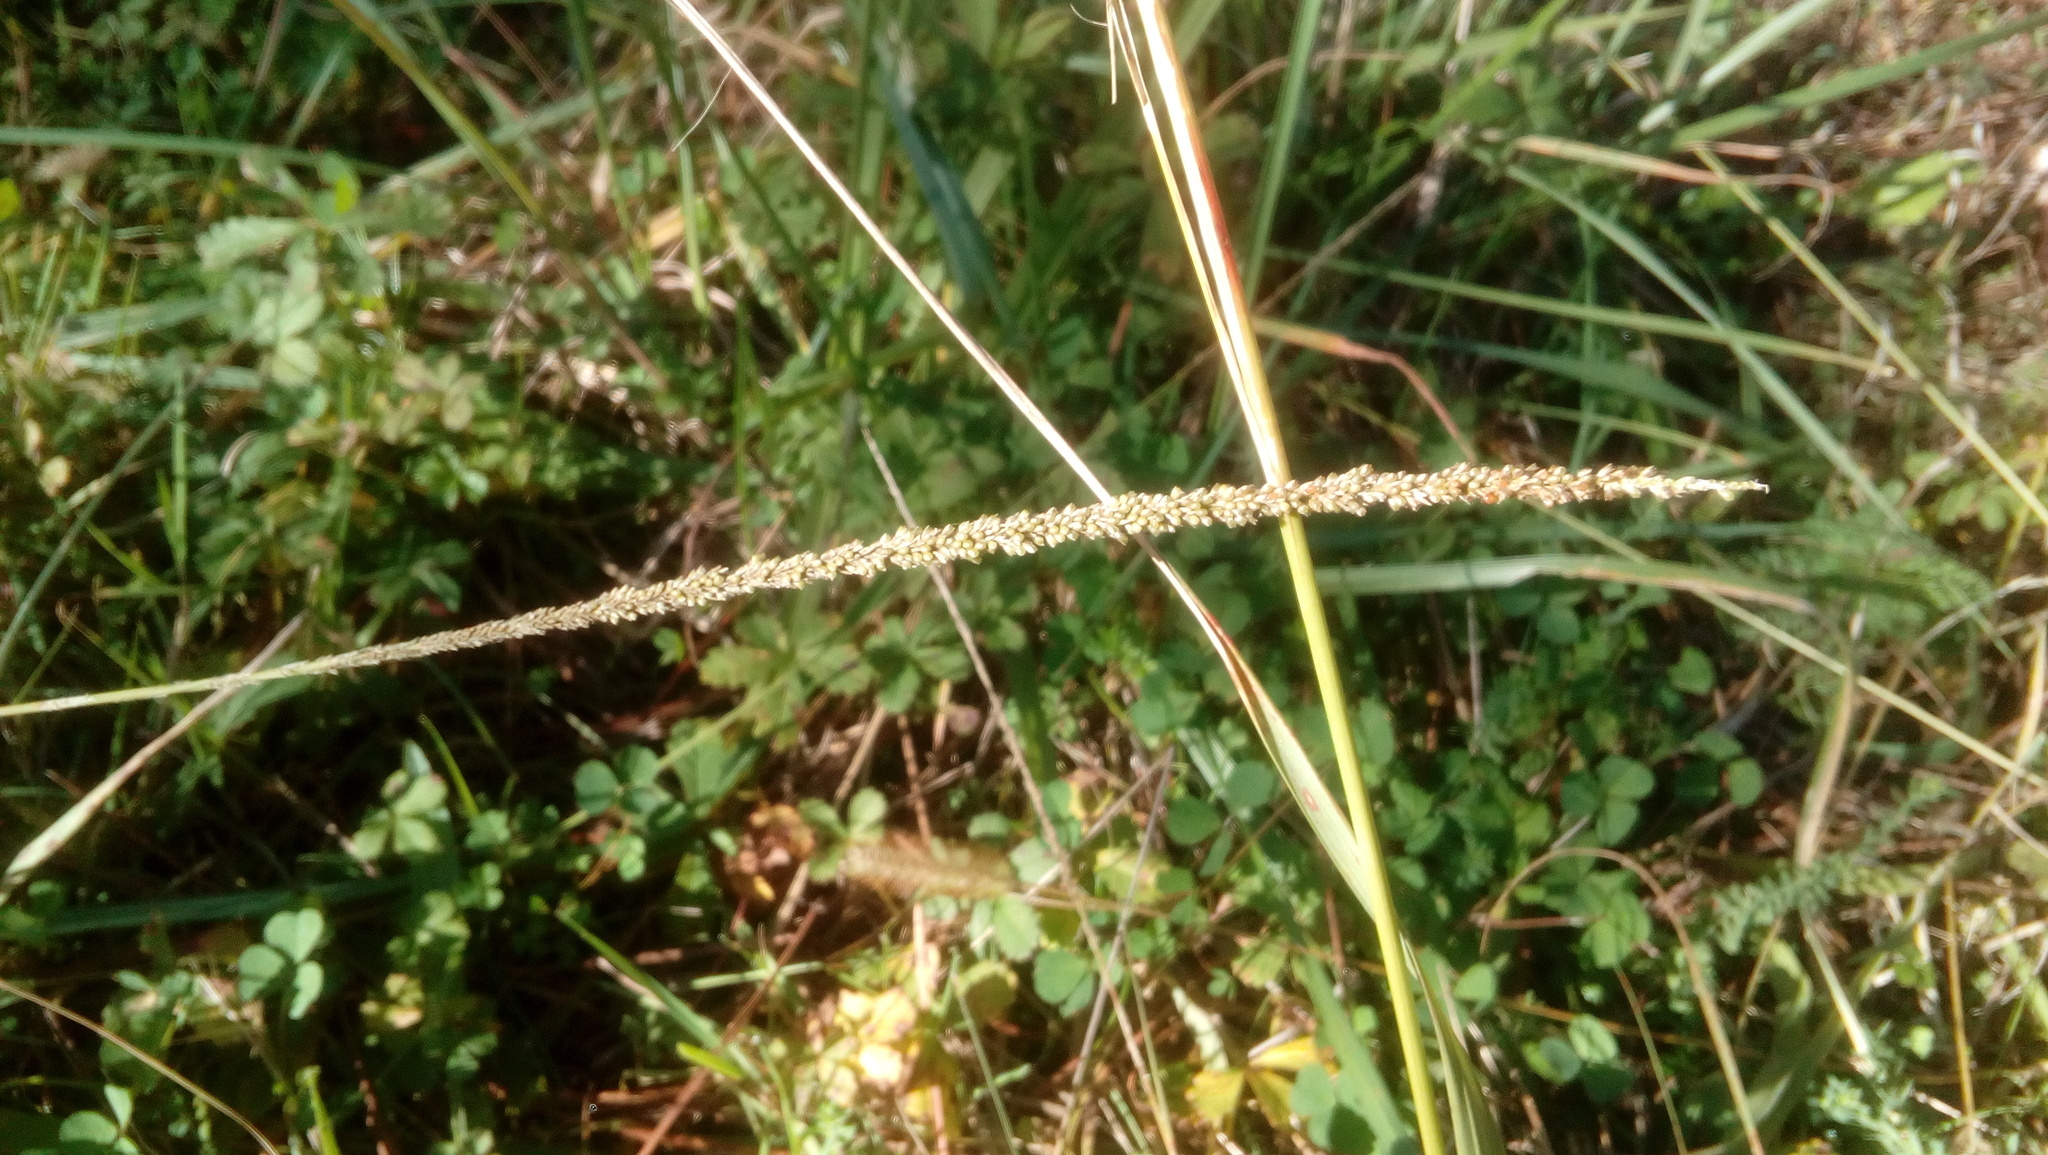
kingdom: Plantae
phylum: Tracheophyta
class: Liliopsida
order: Poales
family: Poaceae
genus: Sporobolus
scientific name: Sporobolus indicus
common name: Smut grass
